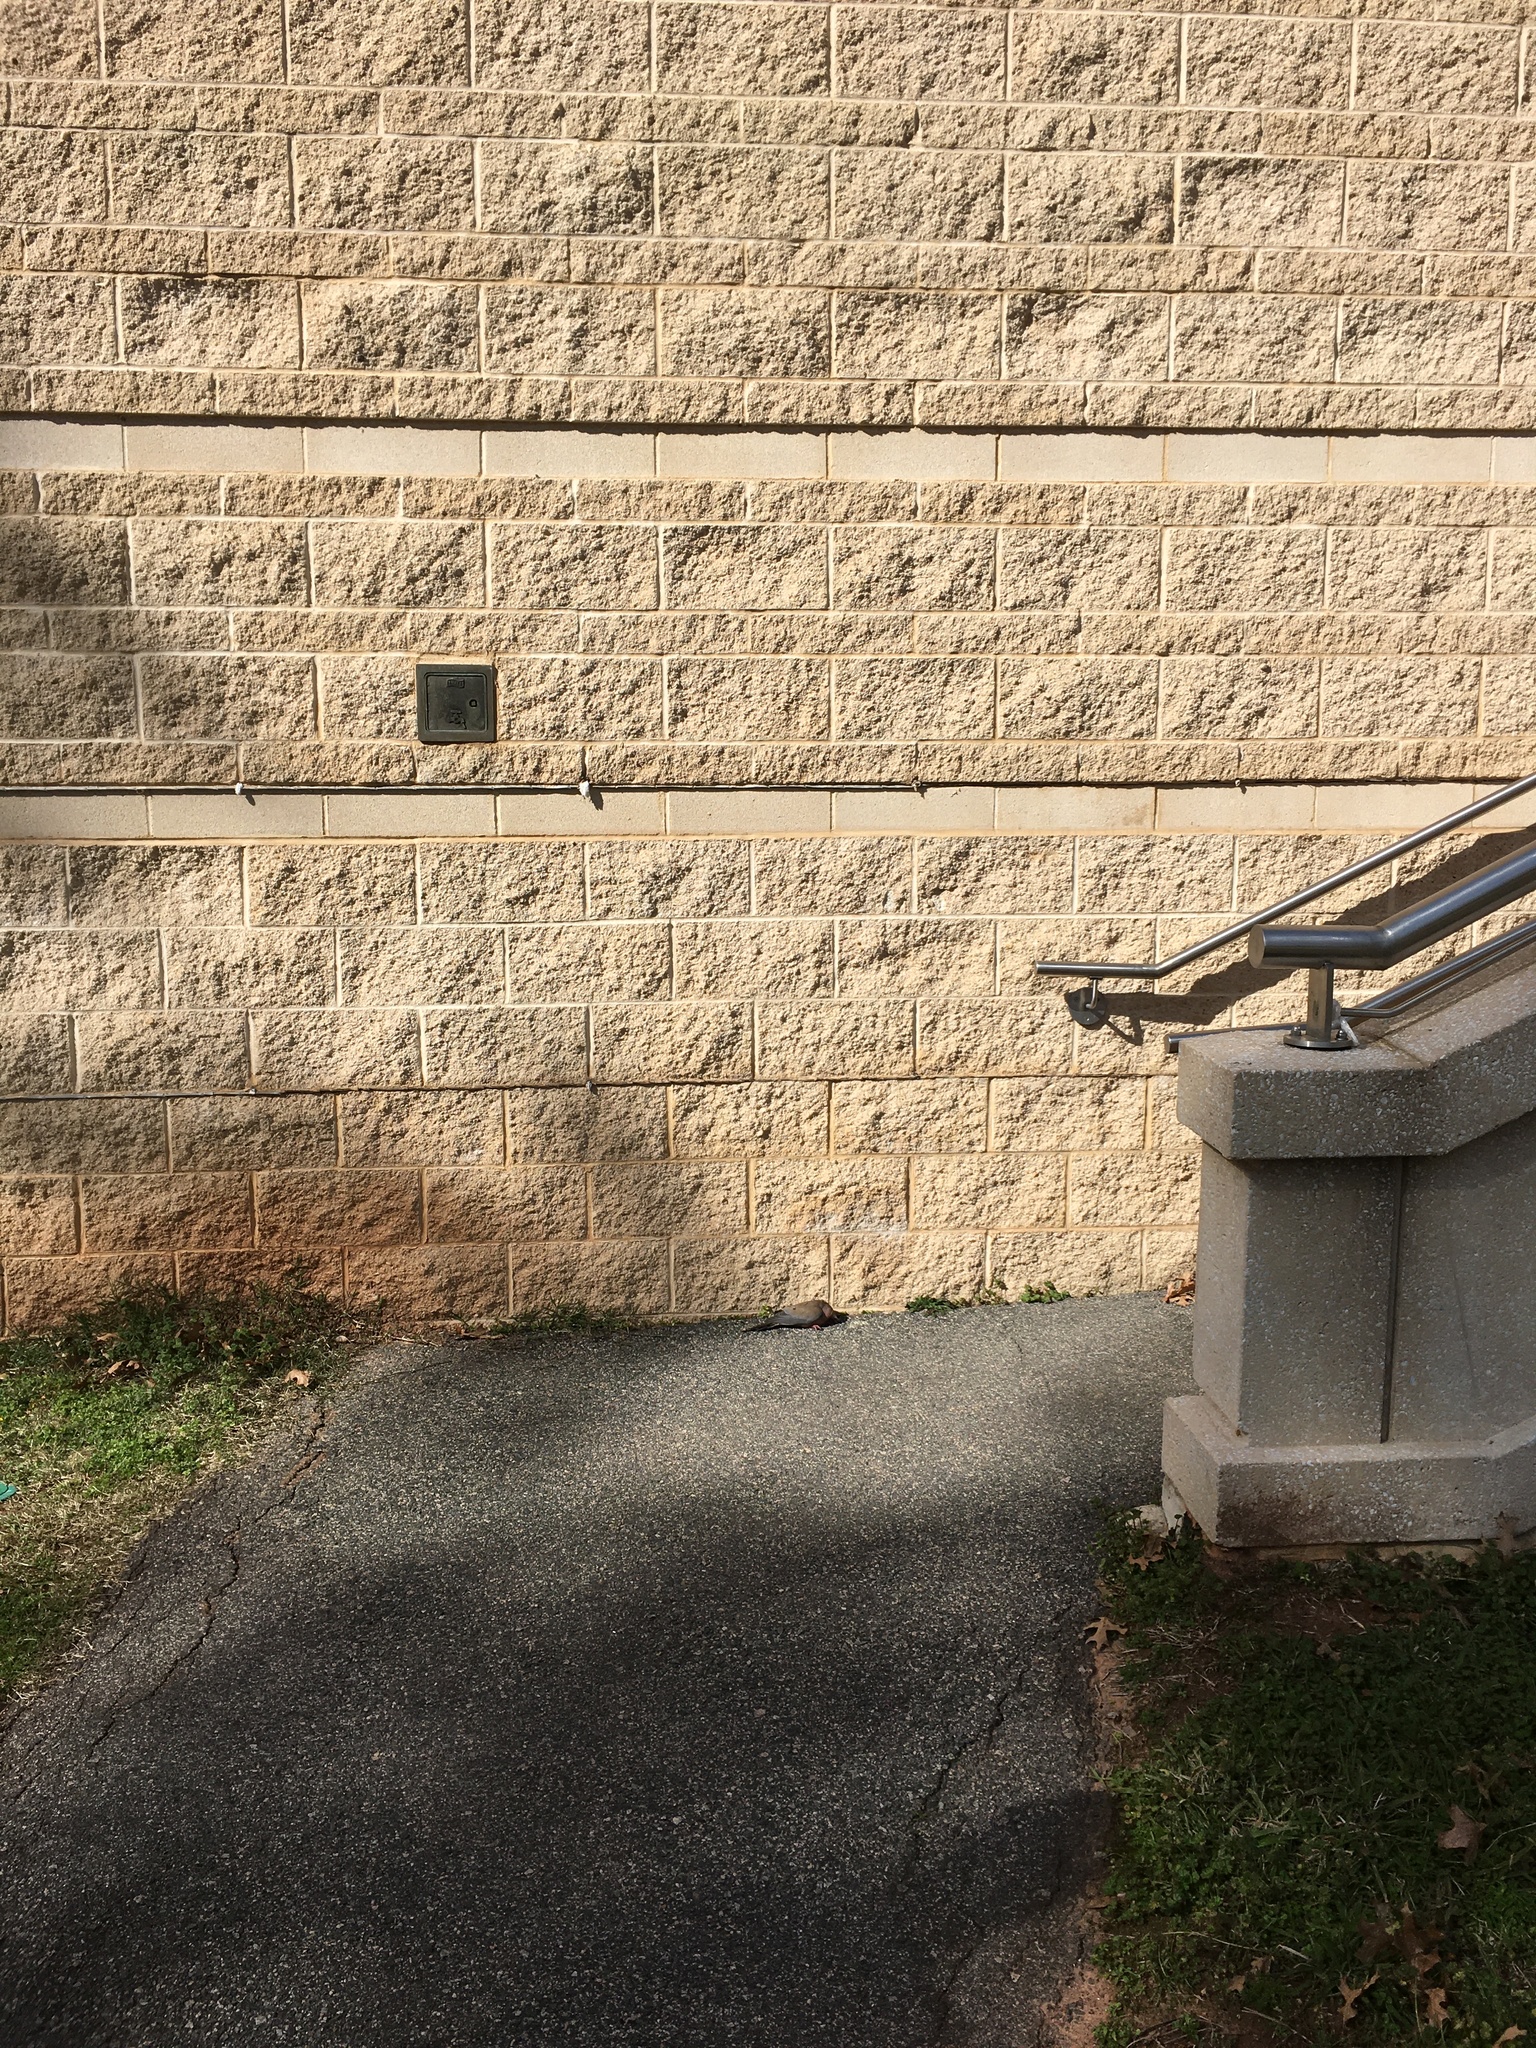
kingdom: Animalia
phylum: Chordata
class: Aves
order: Columbiformes
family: Columbidae
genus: Zenaida
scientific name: Zenaida macroura
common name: Mourning dove
